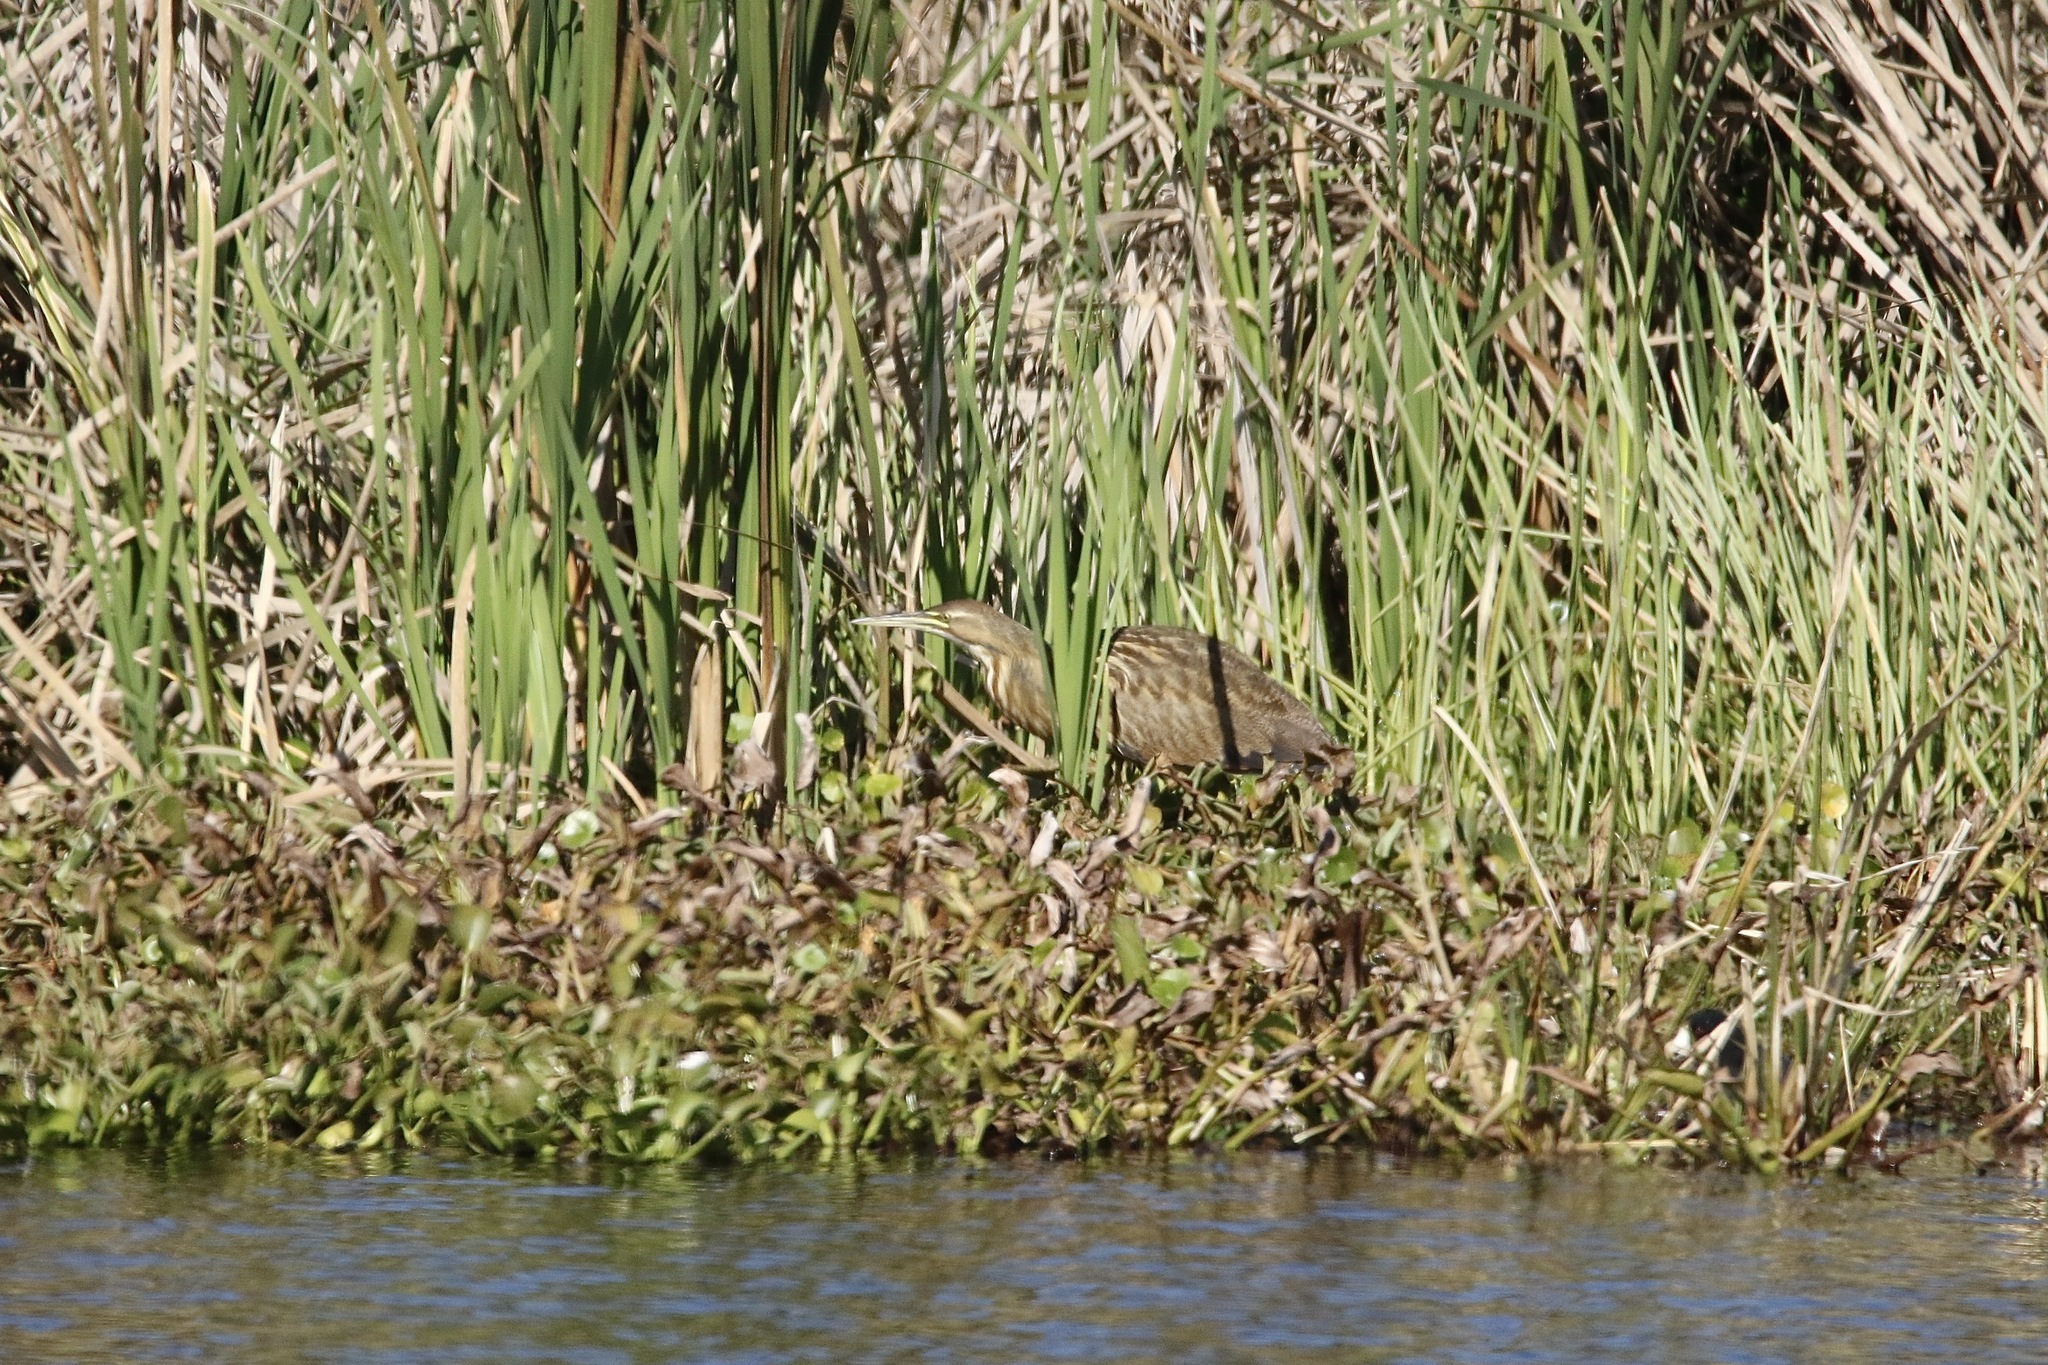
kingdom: Animalia
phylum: Chordata
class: Aves
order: Pelecaniformes
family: Ardeidae
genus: Botaurus
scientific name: Botaurus lentiginosus
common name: American bittern
